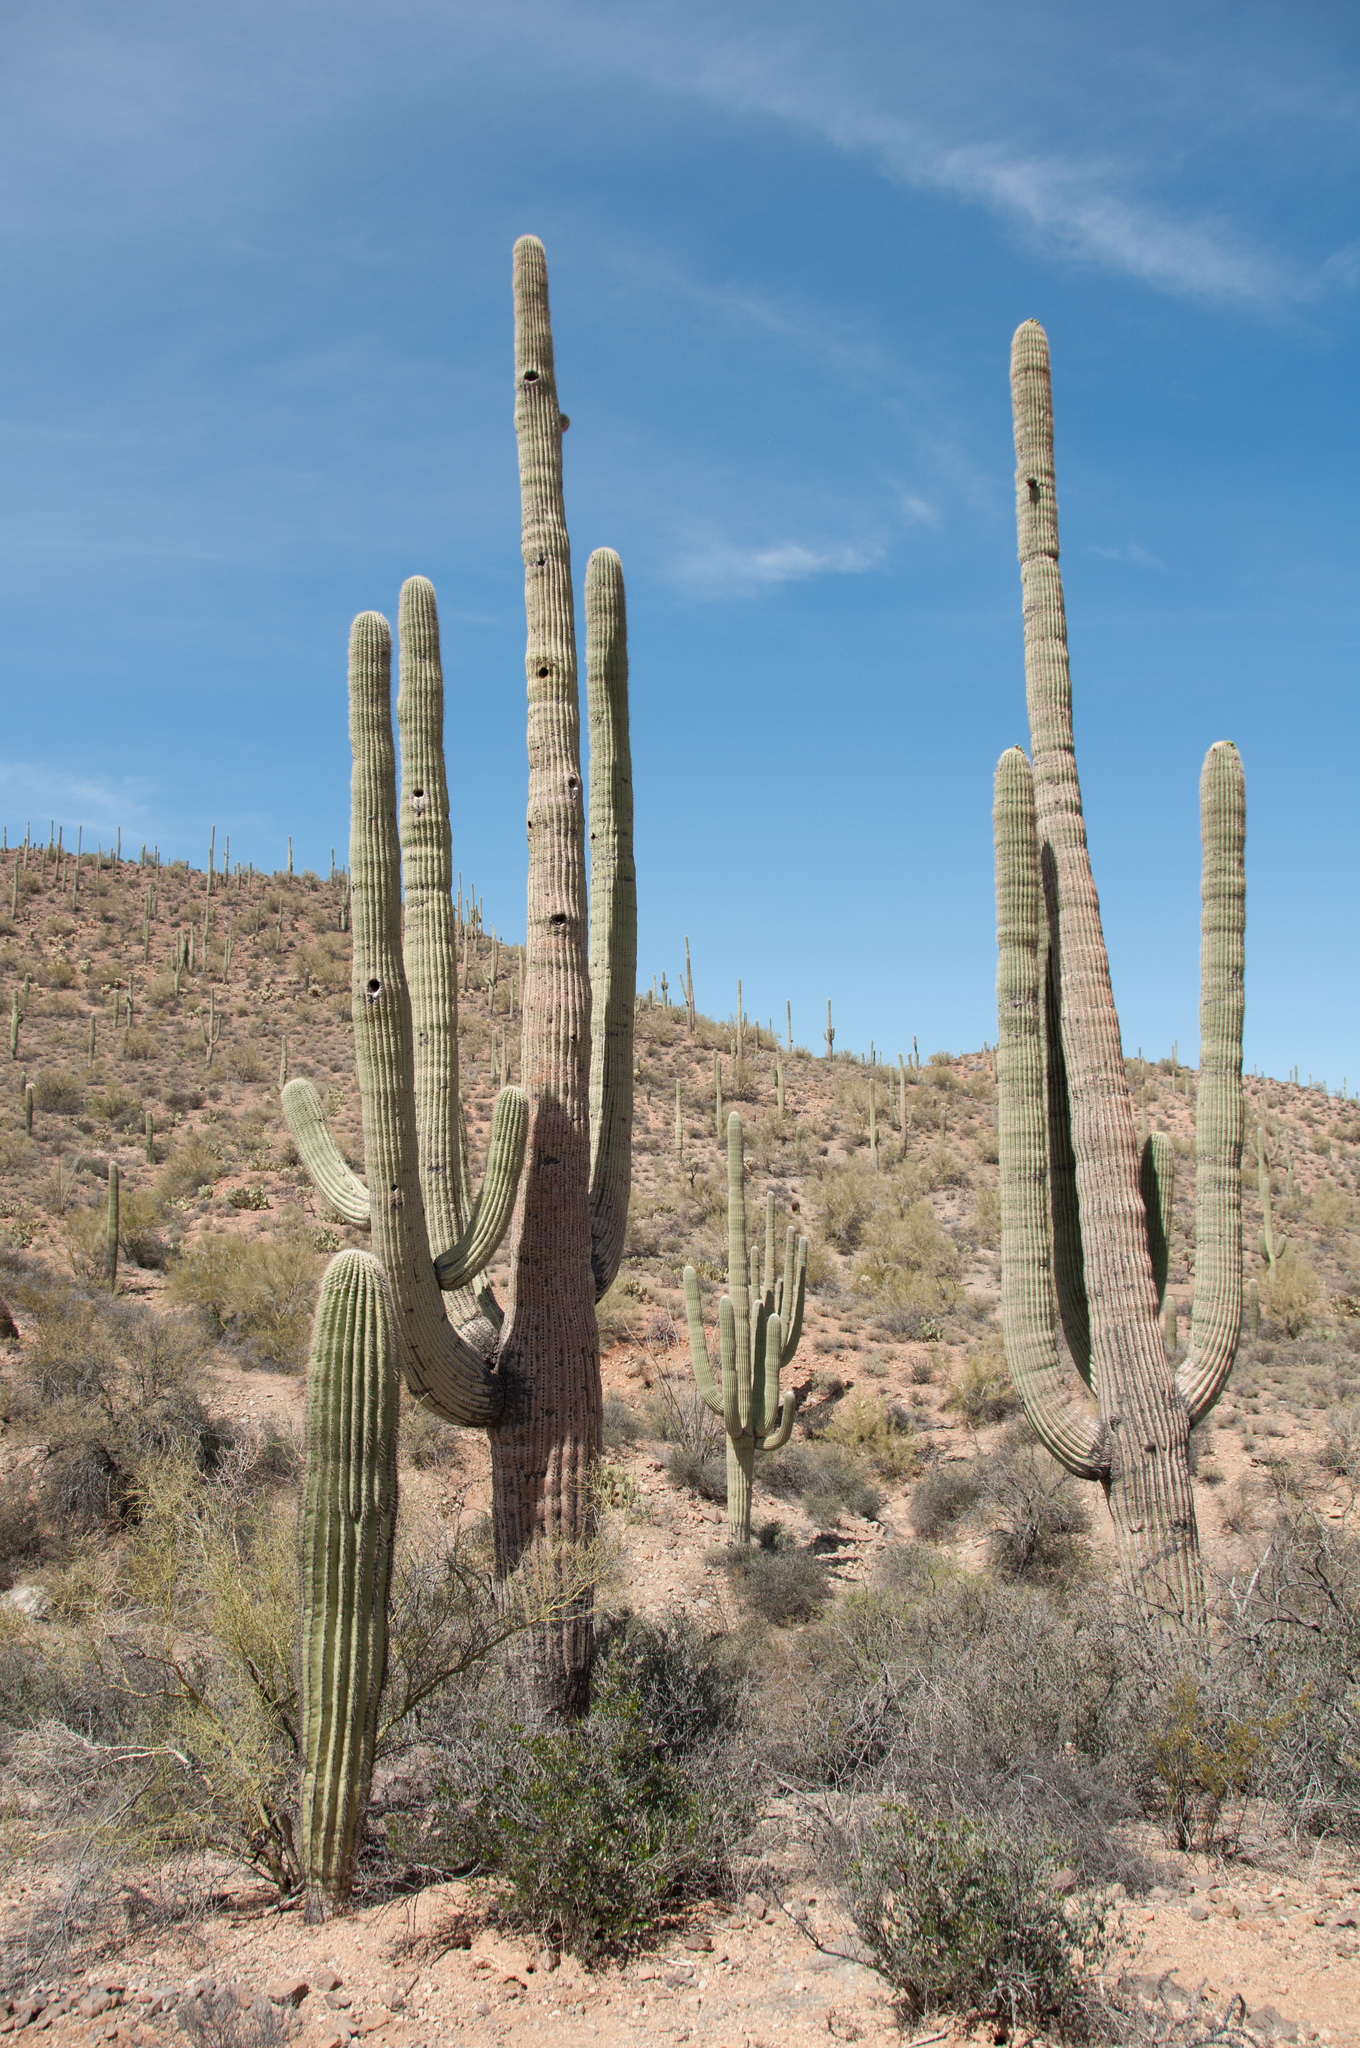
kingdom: Plantae
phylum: Tracheophyta
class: Magnoliopsida
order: Caryophyllales
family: Cactaceae
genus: Carnegiea
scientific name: Carnegiea gigantea
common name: Saguaro
